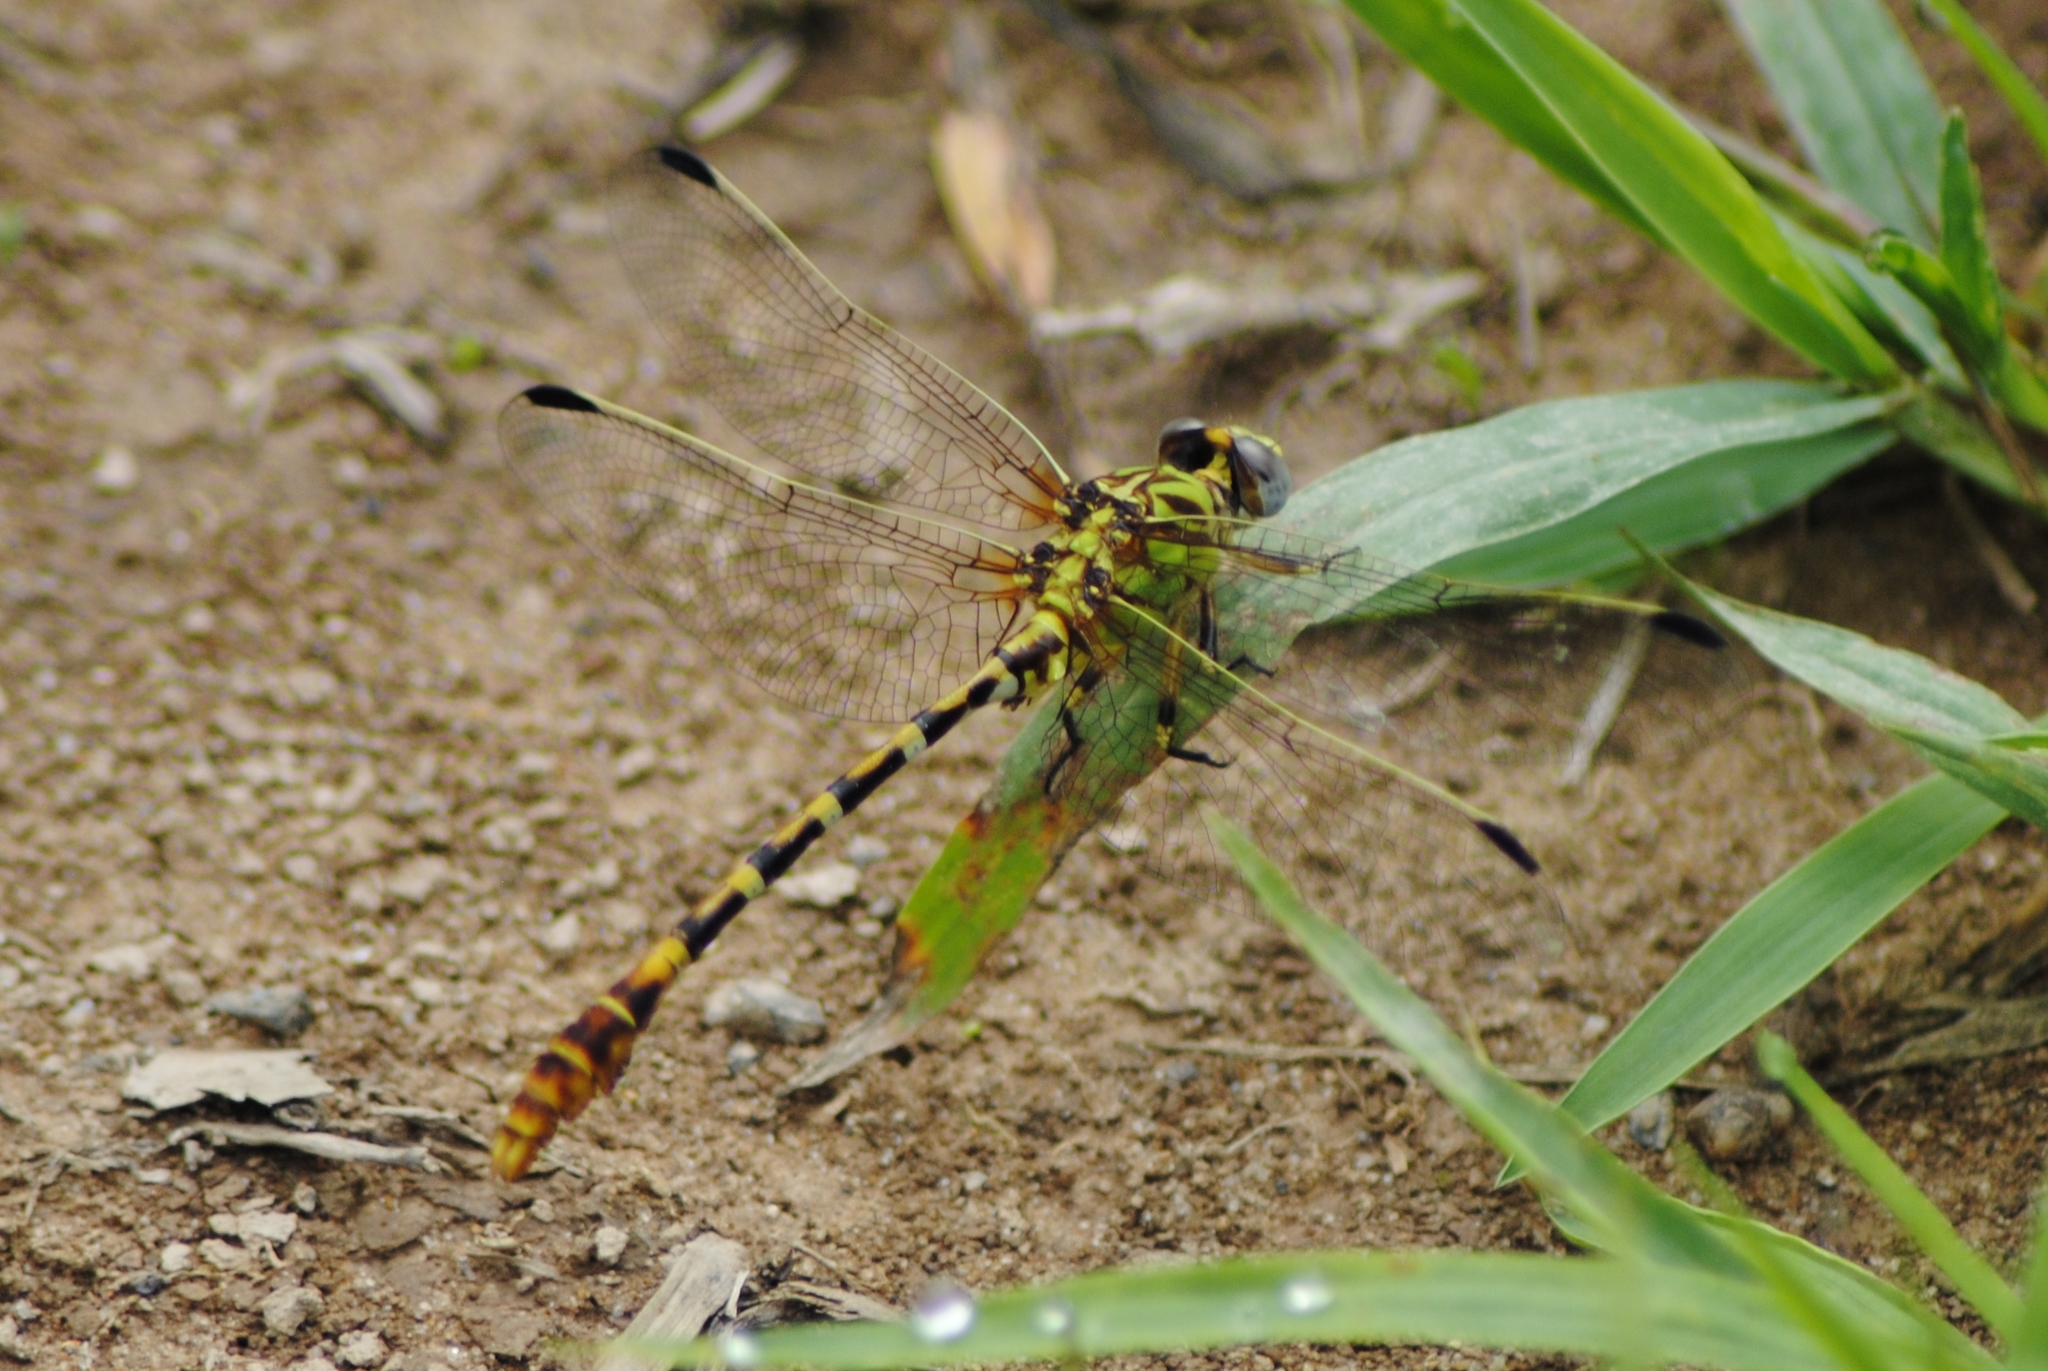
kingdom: Animalia
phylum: Arthropoda
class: Insecta
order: Odonata
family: Gomphidae
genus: Erpetogomphus
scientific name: Erpetogomphus designatus
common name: Eastern ringtail
